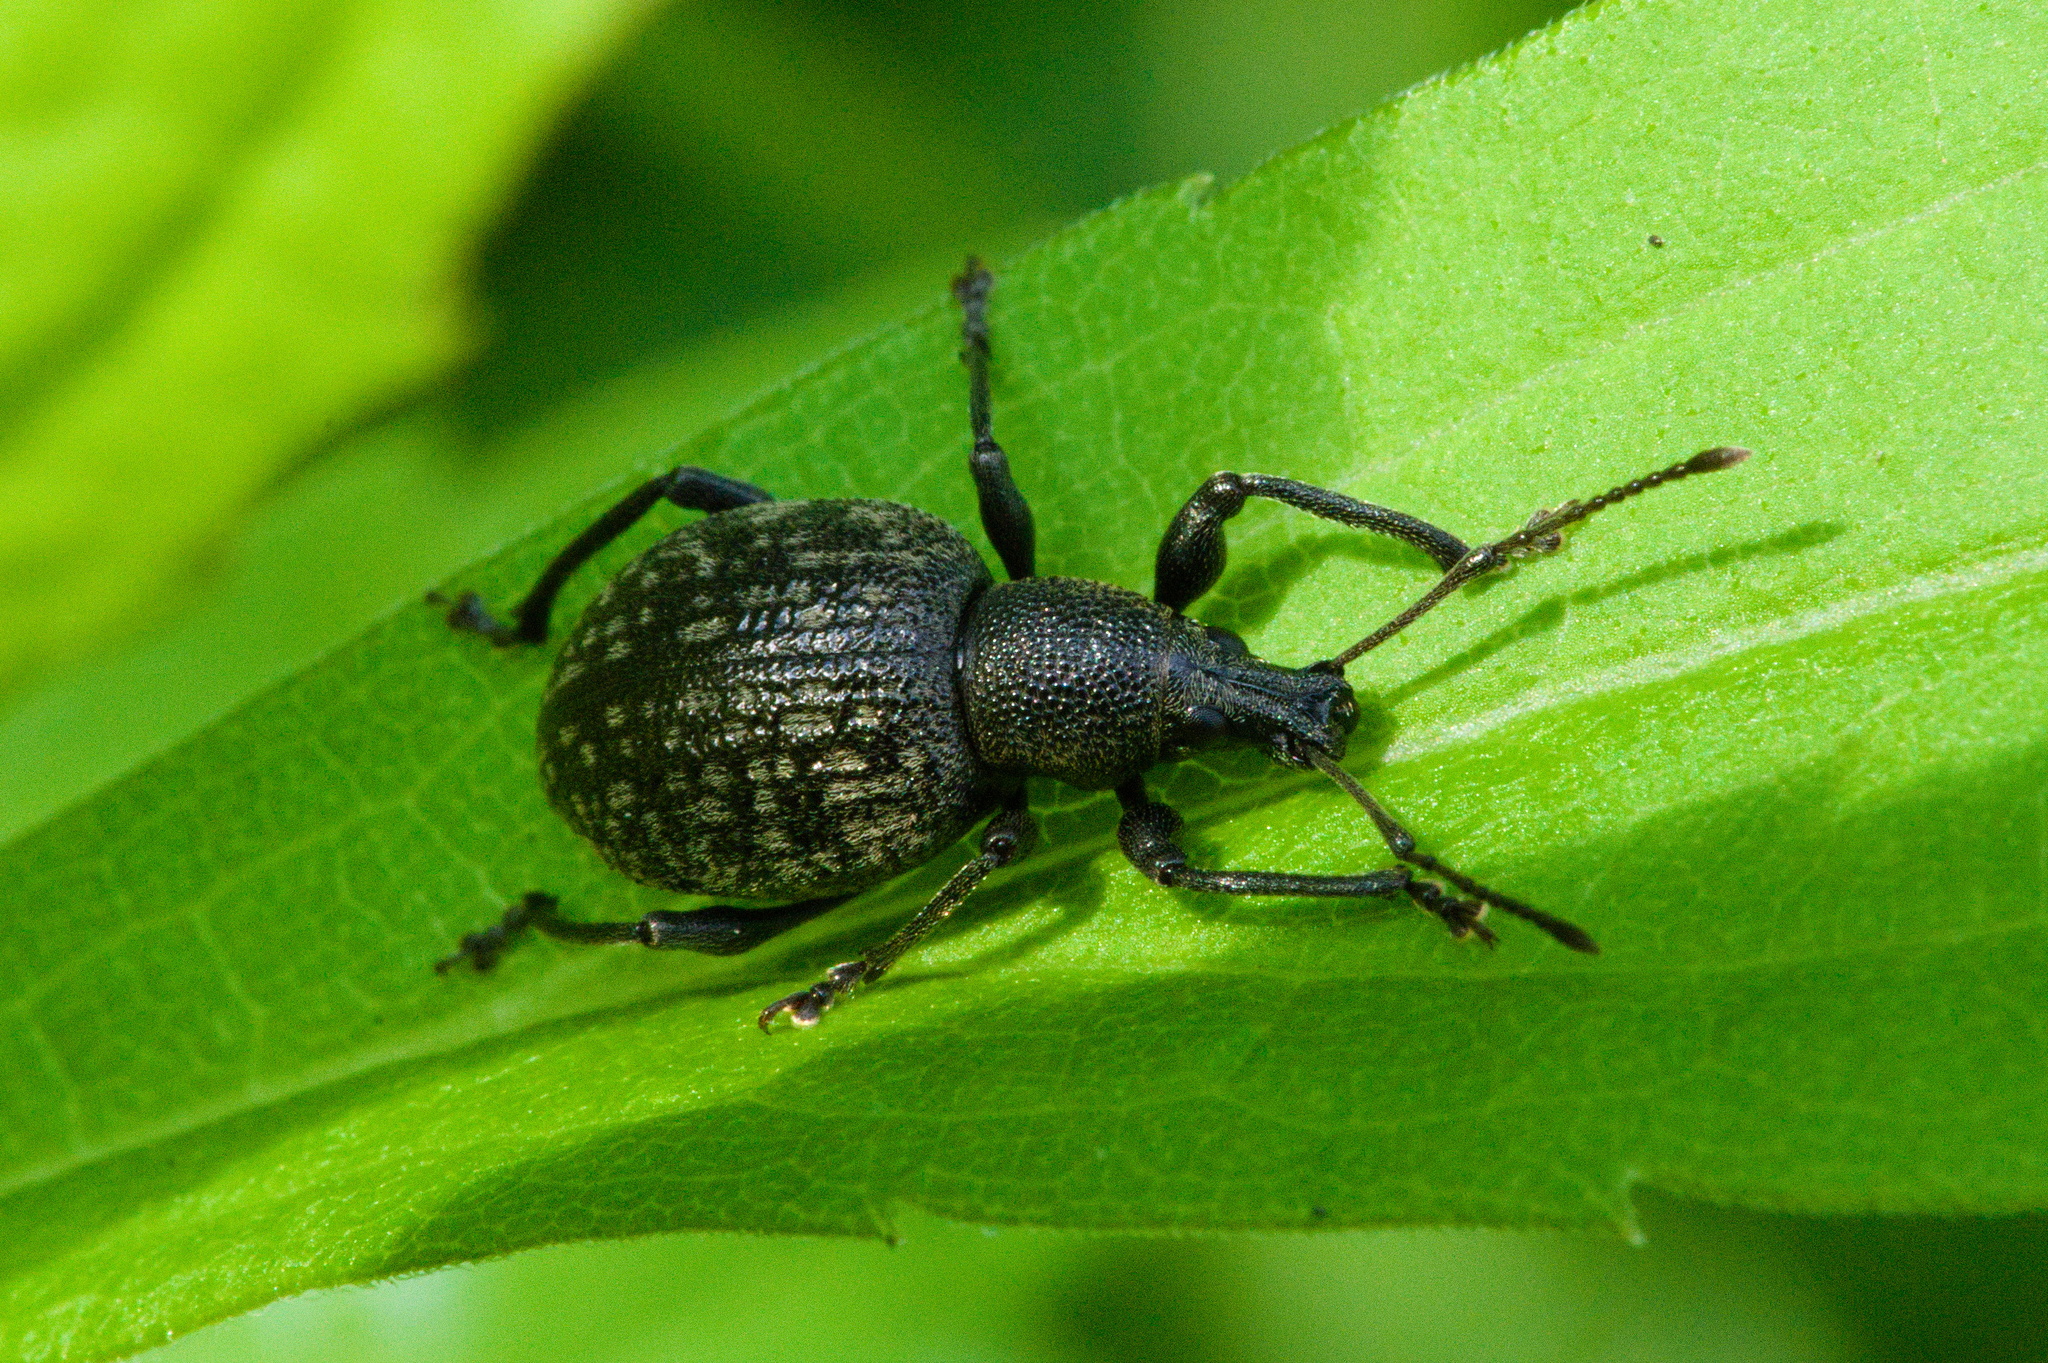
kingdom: Animalia
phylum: Arthropoda
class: Insecta
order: Coleoptera
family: Curculionidae
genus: Otiorhynchus
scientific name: Otiorhynchus armadillo
